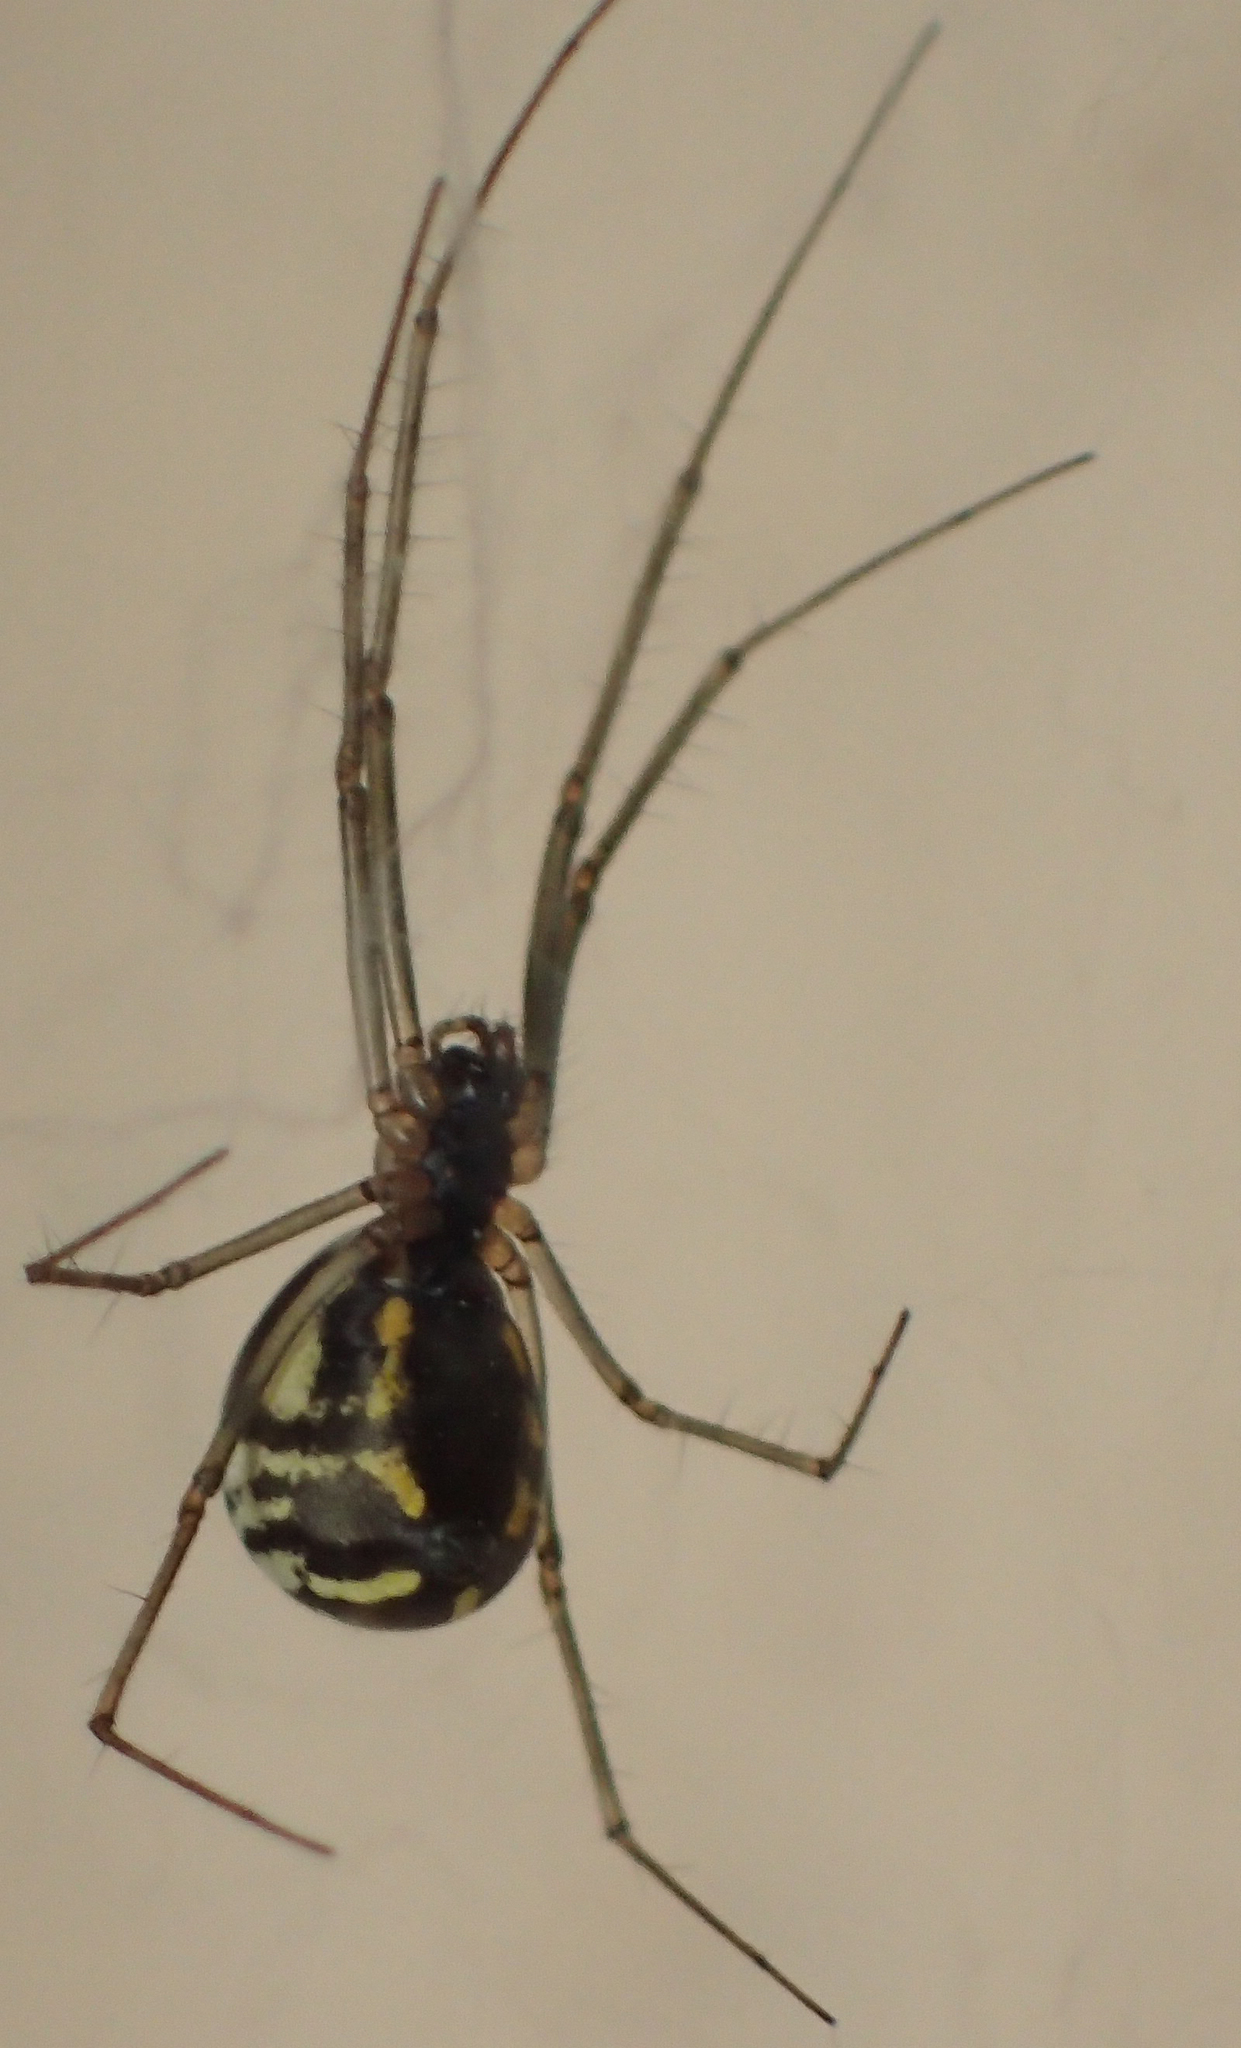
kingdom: Animalia
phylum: Arthropoda
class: Arachnida
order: Araneae
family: Linyphiidae
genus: Neriene
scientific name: Neriene radiata
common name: Filmy dome spider
